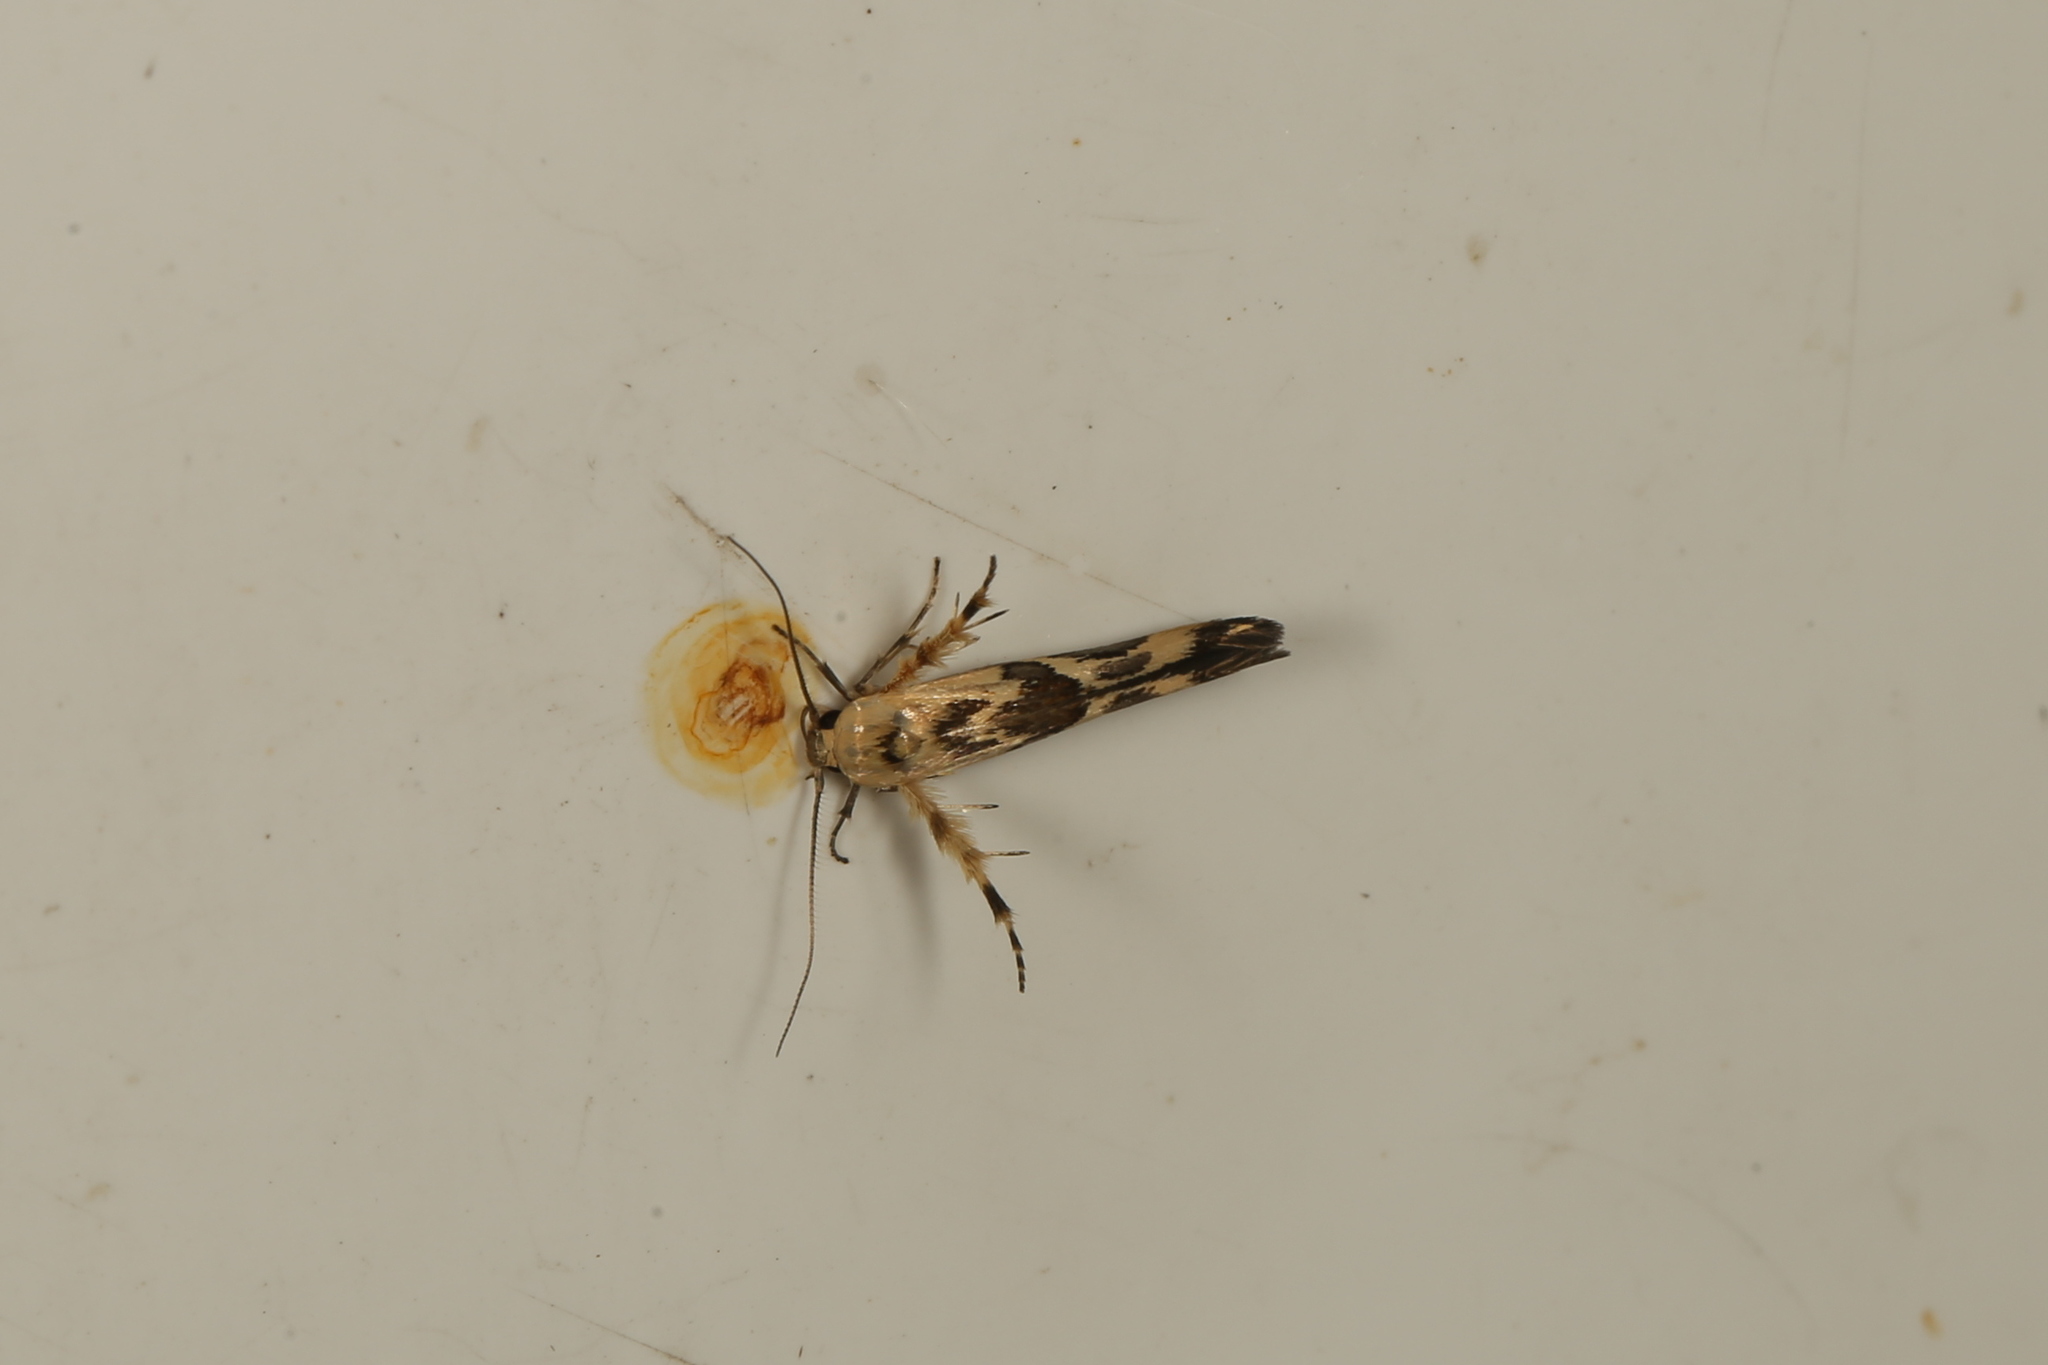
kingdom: Animalia
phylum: Arthropoda
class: Insecta
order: Lepidoptera
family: Stathmopodidae
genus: Stathmopoda
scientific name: Stathmopoda melanochra
